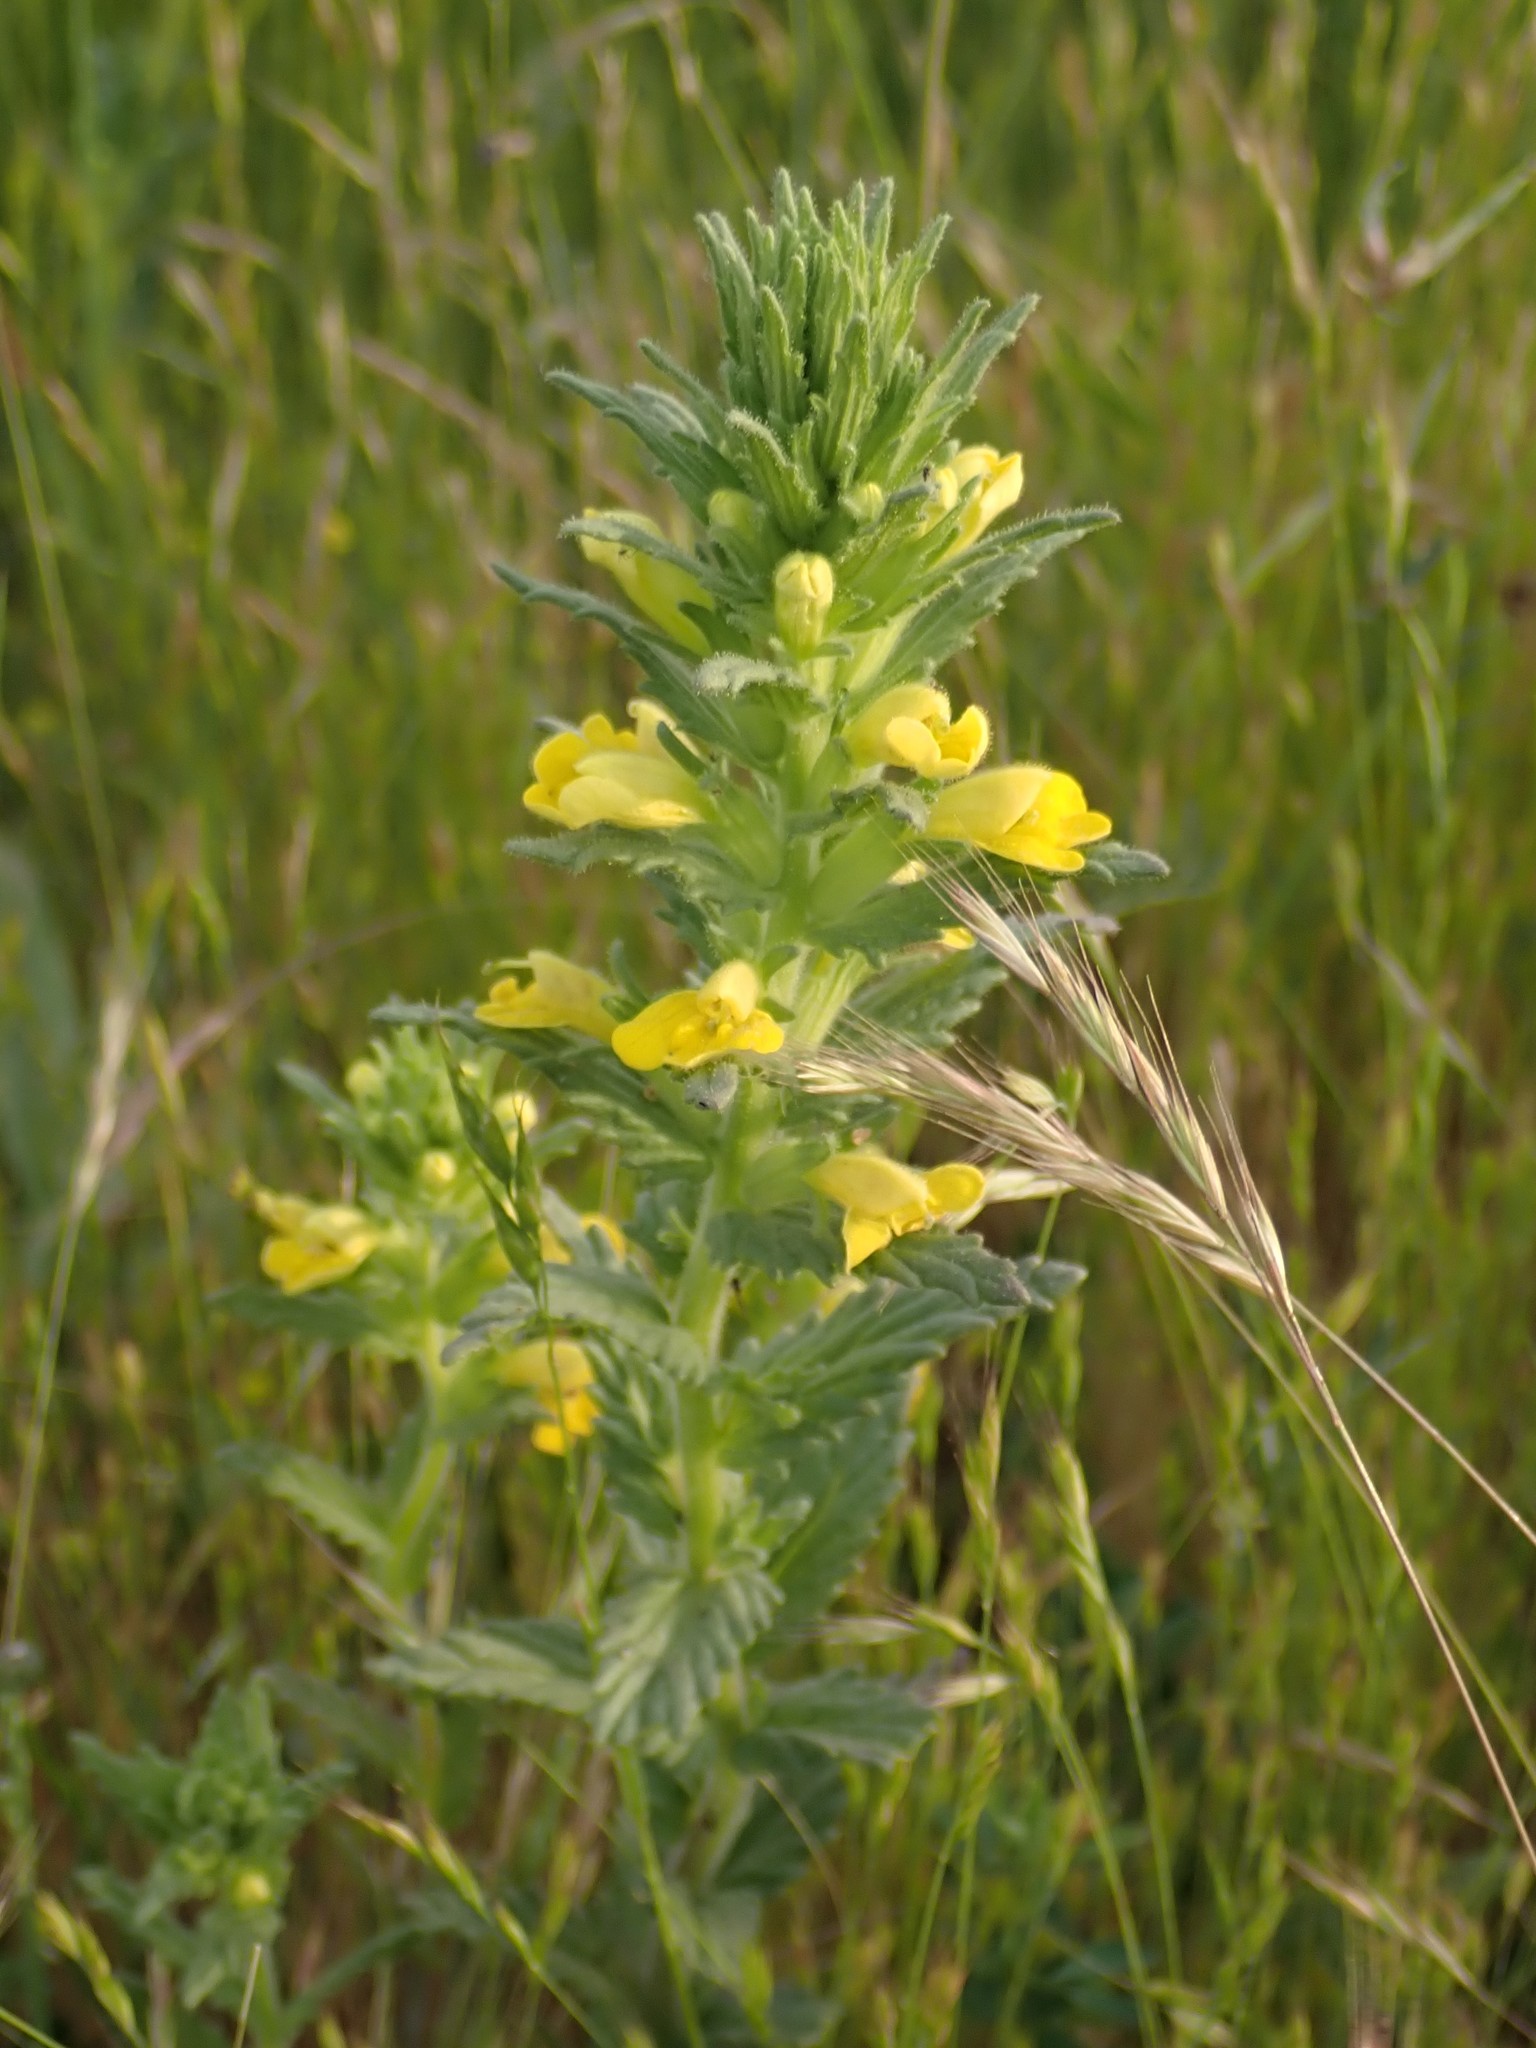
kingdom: Plantae
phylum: Tracheophyta
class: Magnoliopsida
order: Lamiales
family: Orobanchaceae
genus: Bellardia
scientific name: Bellardia viscosa
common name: Sticky parentucellia
